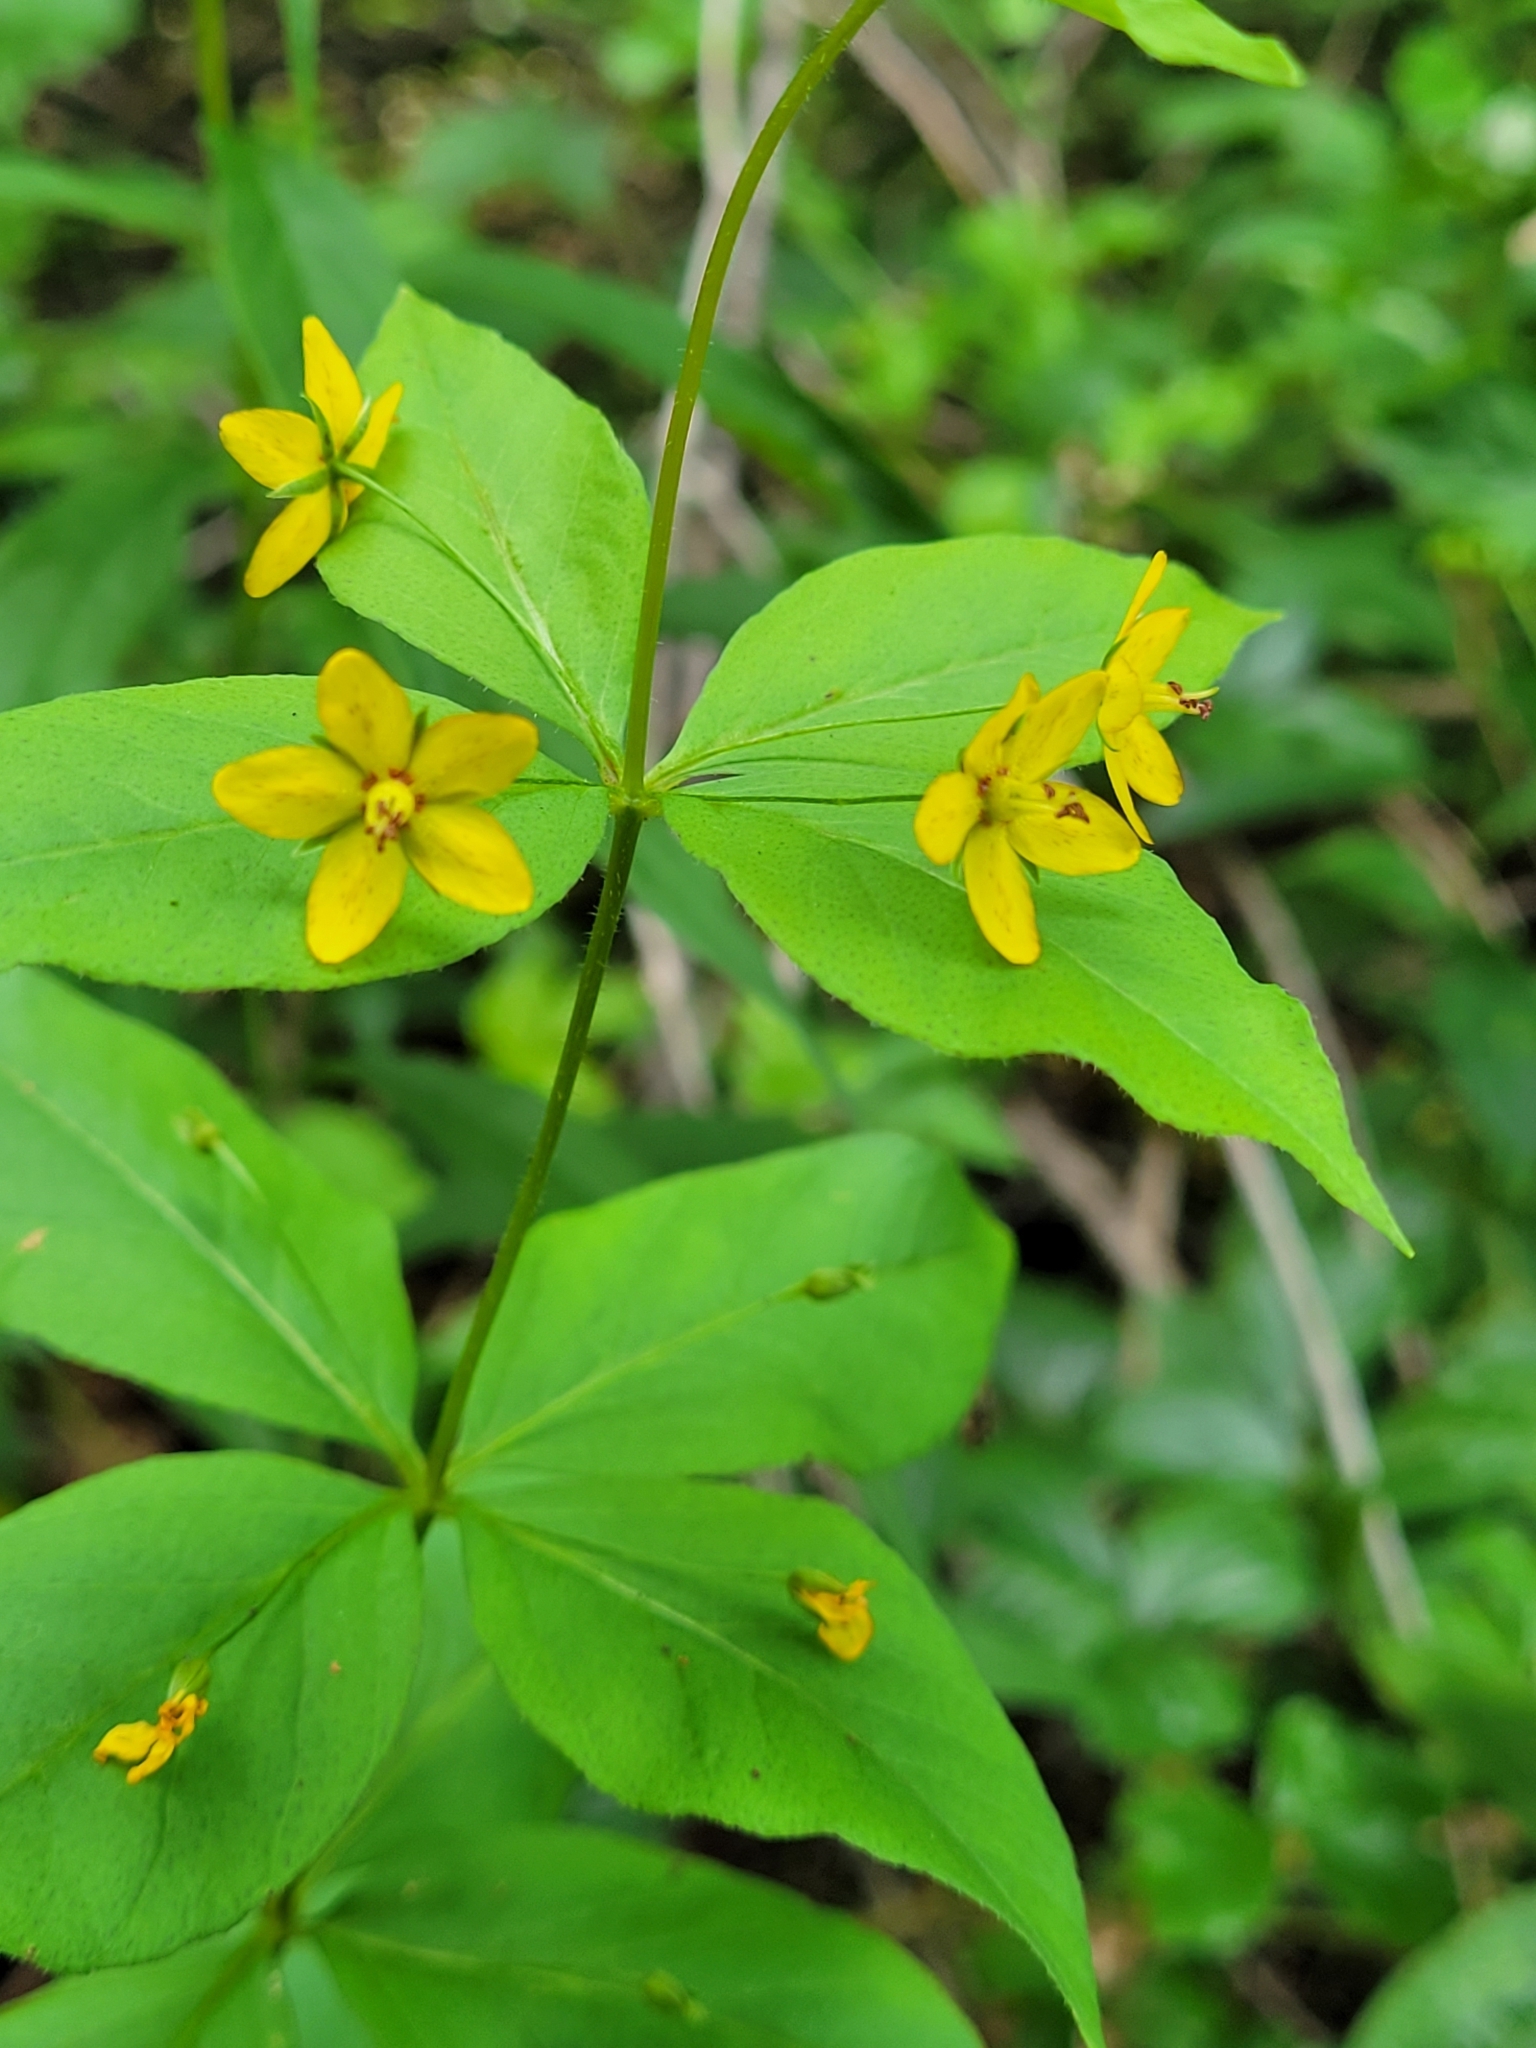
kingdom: Plantae
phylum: Tracheophyta
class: Magnoliopsida
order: Ericales
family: Primulaceae
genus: Lysimachia
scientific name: Lysimachia quadrifolia
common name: Whorled loosestrife
